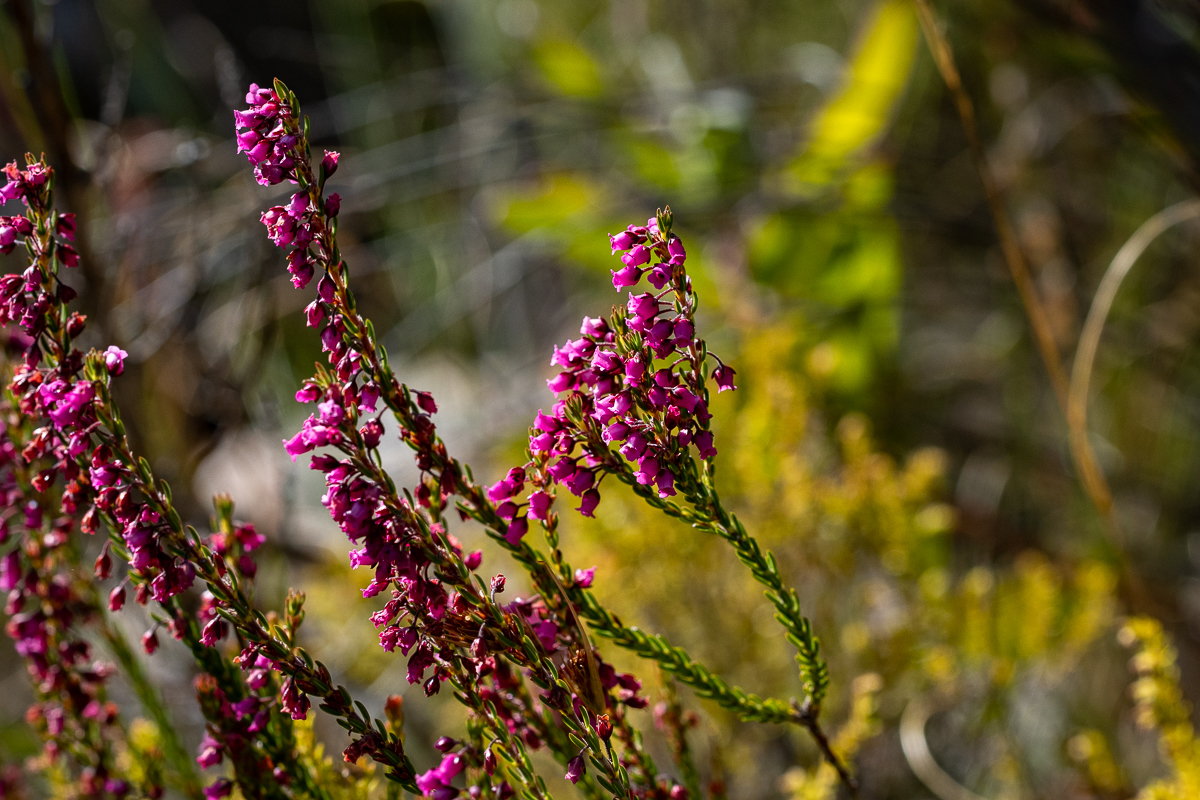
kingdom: Plantae
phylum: Tracheophyta
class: Magnoliopsida
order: Ericales
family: Ericaceae
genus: Erica
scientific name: Erica pulchella
